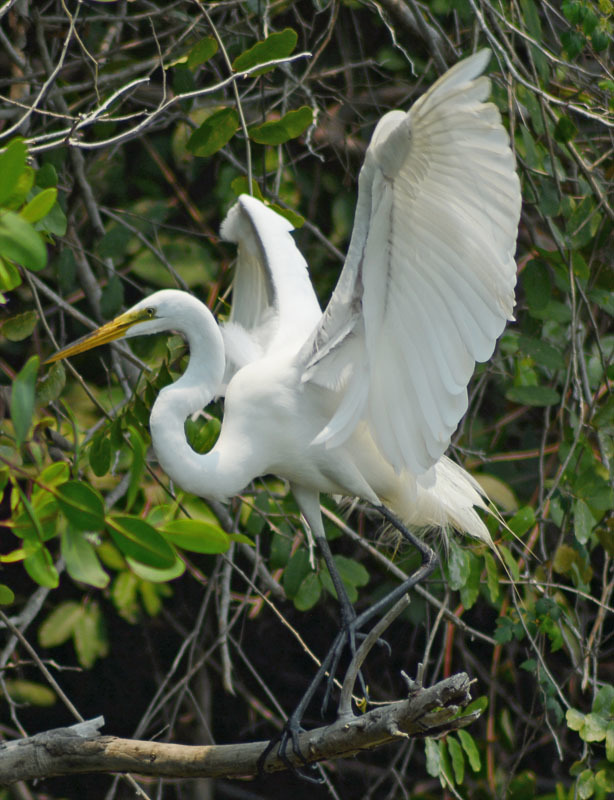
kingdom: Animalia
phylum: Chordata
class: Aves
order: Pelecaniformes
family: Ardeidae
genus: Ardea
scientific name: Ardea alba
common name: Great egret
